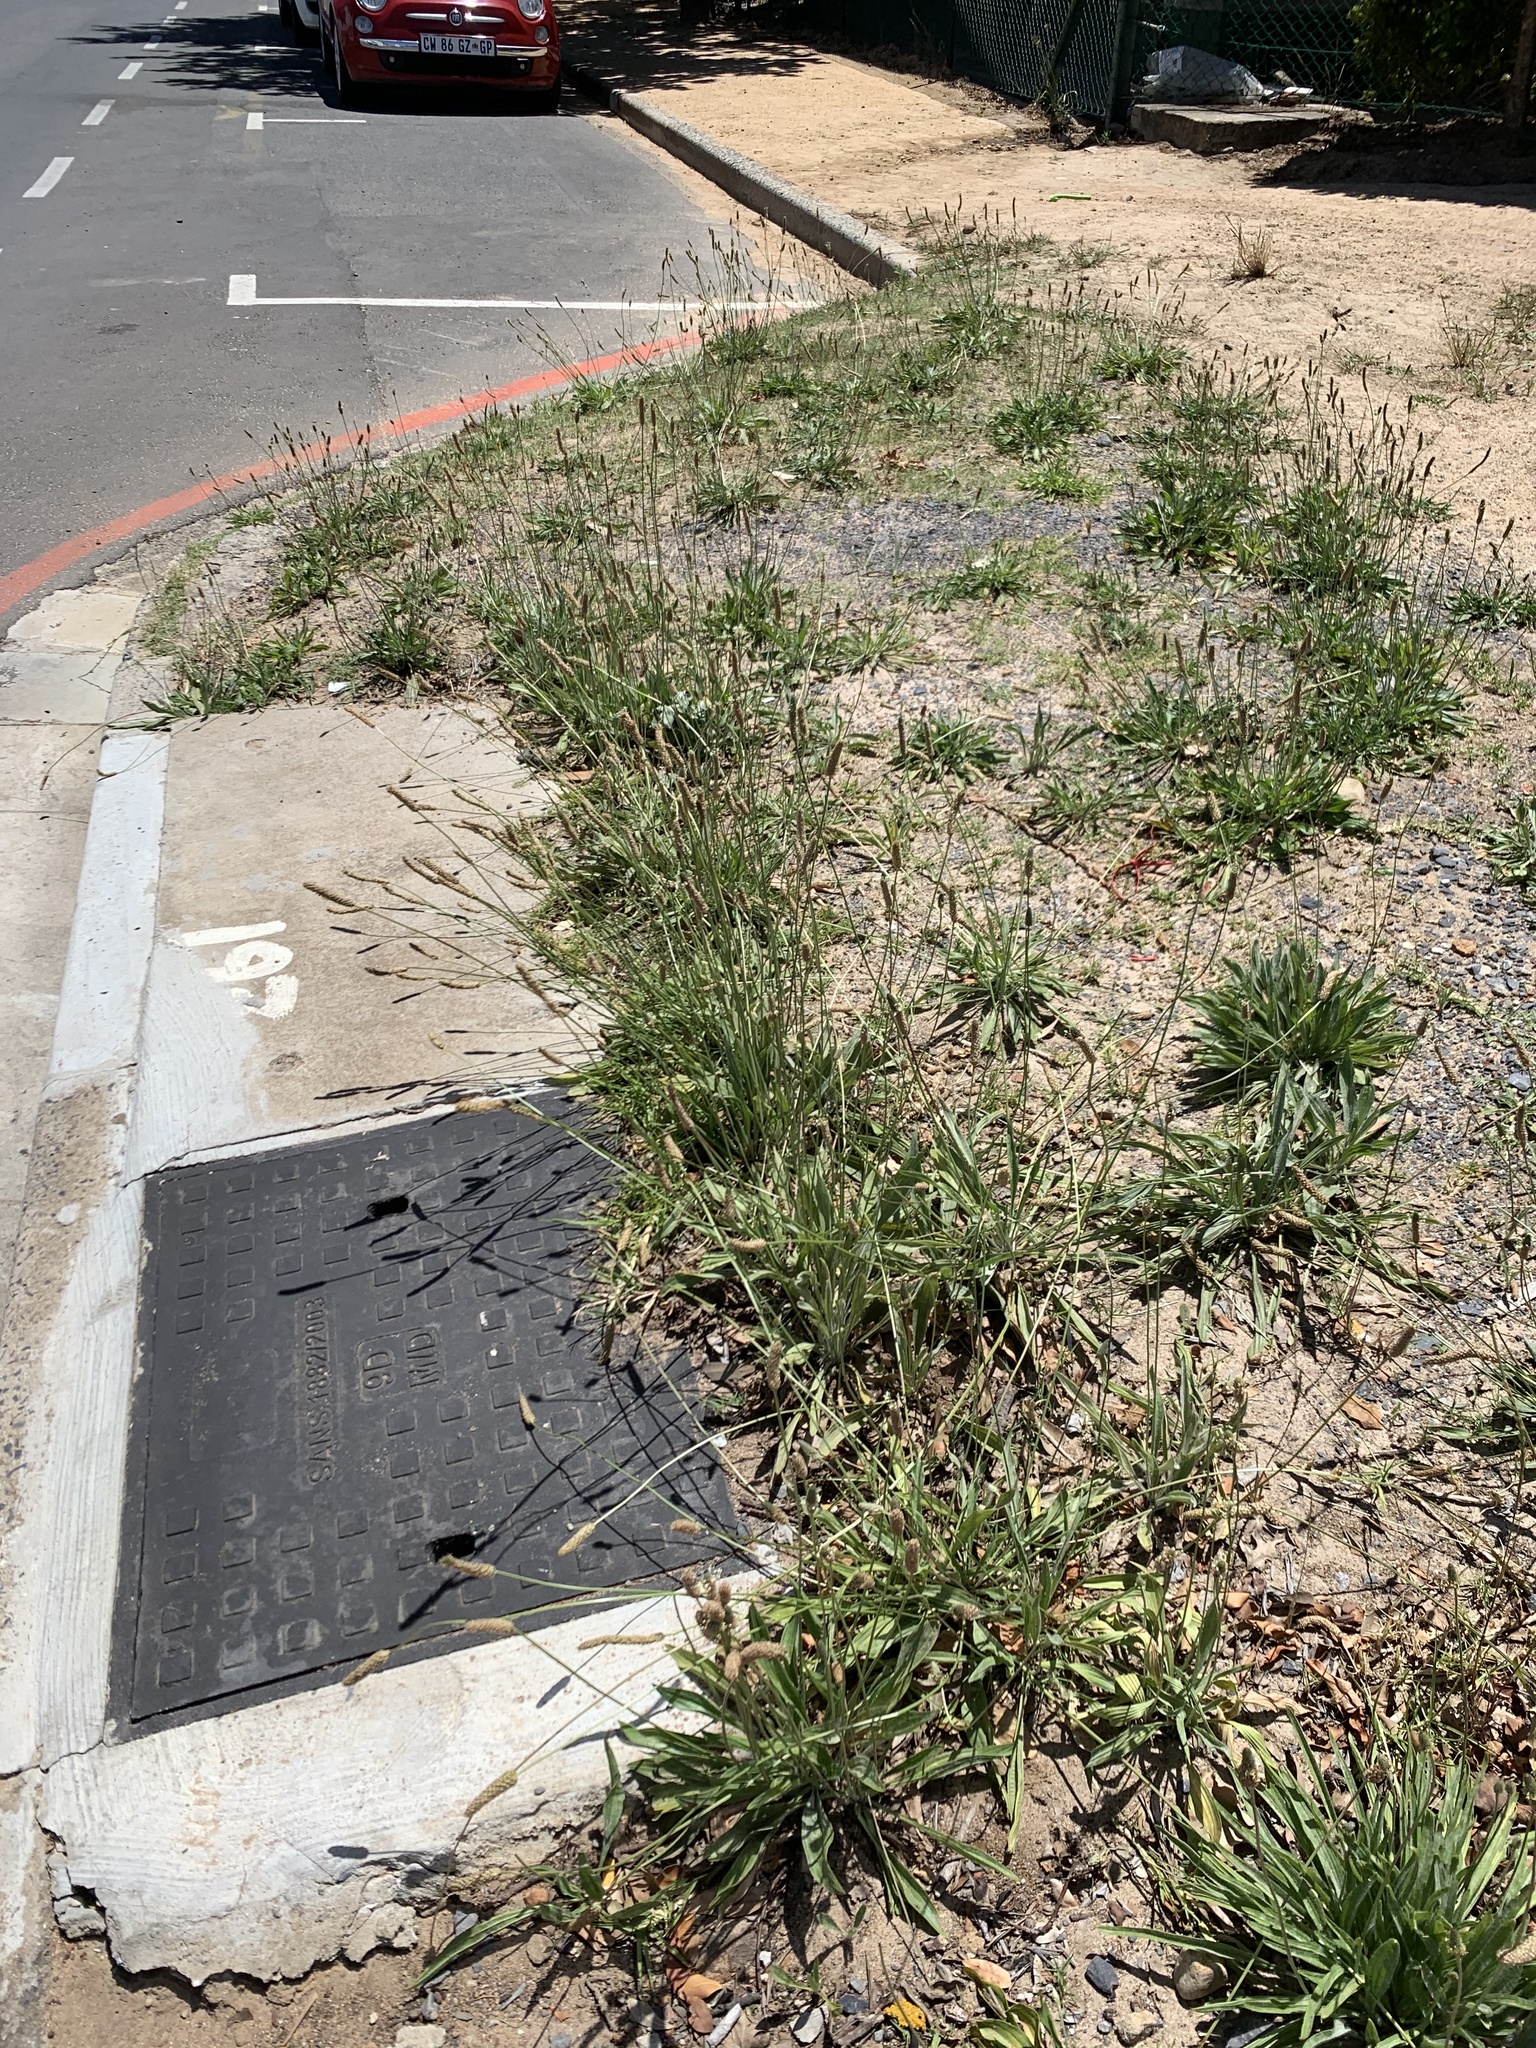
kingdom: Plantae
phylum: Tracheophyta
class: Magnoliopsida
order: Lamiales
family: Plantaginaceae
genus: Plantago
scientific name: Plantago lanceolata
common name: Ribwort plantain
